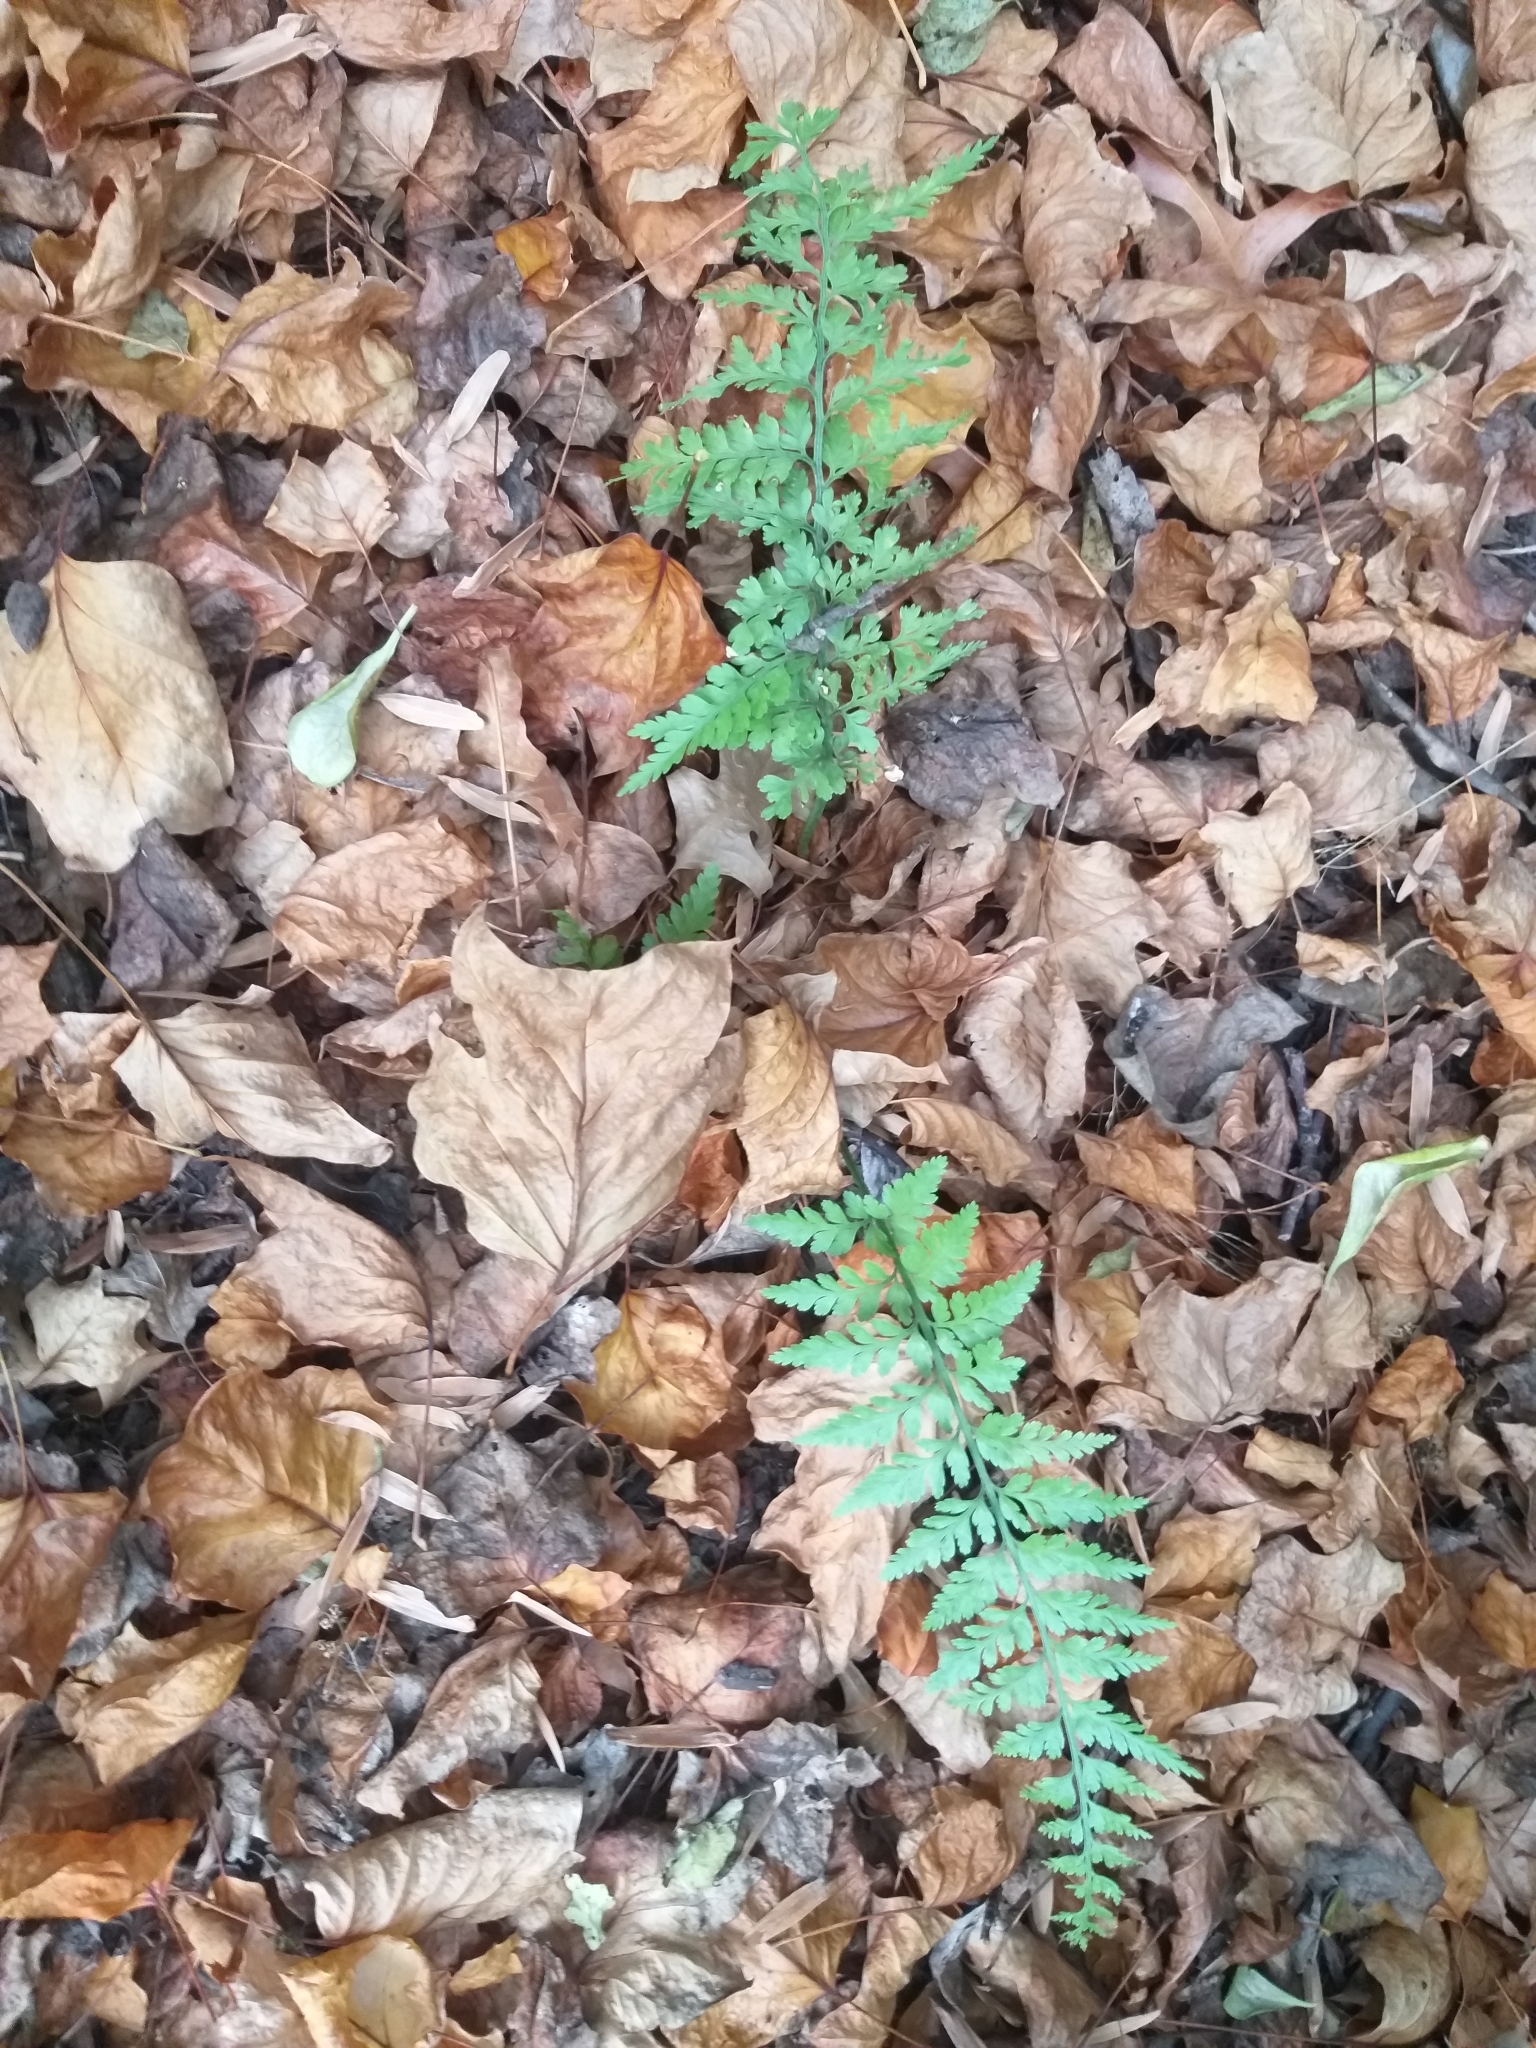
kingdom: Plantae
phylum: Tracheophyta
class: Polypodiopsida
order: Polypodiales
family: Aspleniaceae
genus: Asplenium
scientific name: Asplenium
